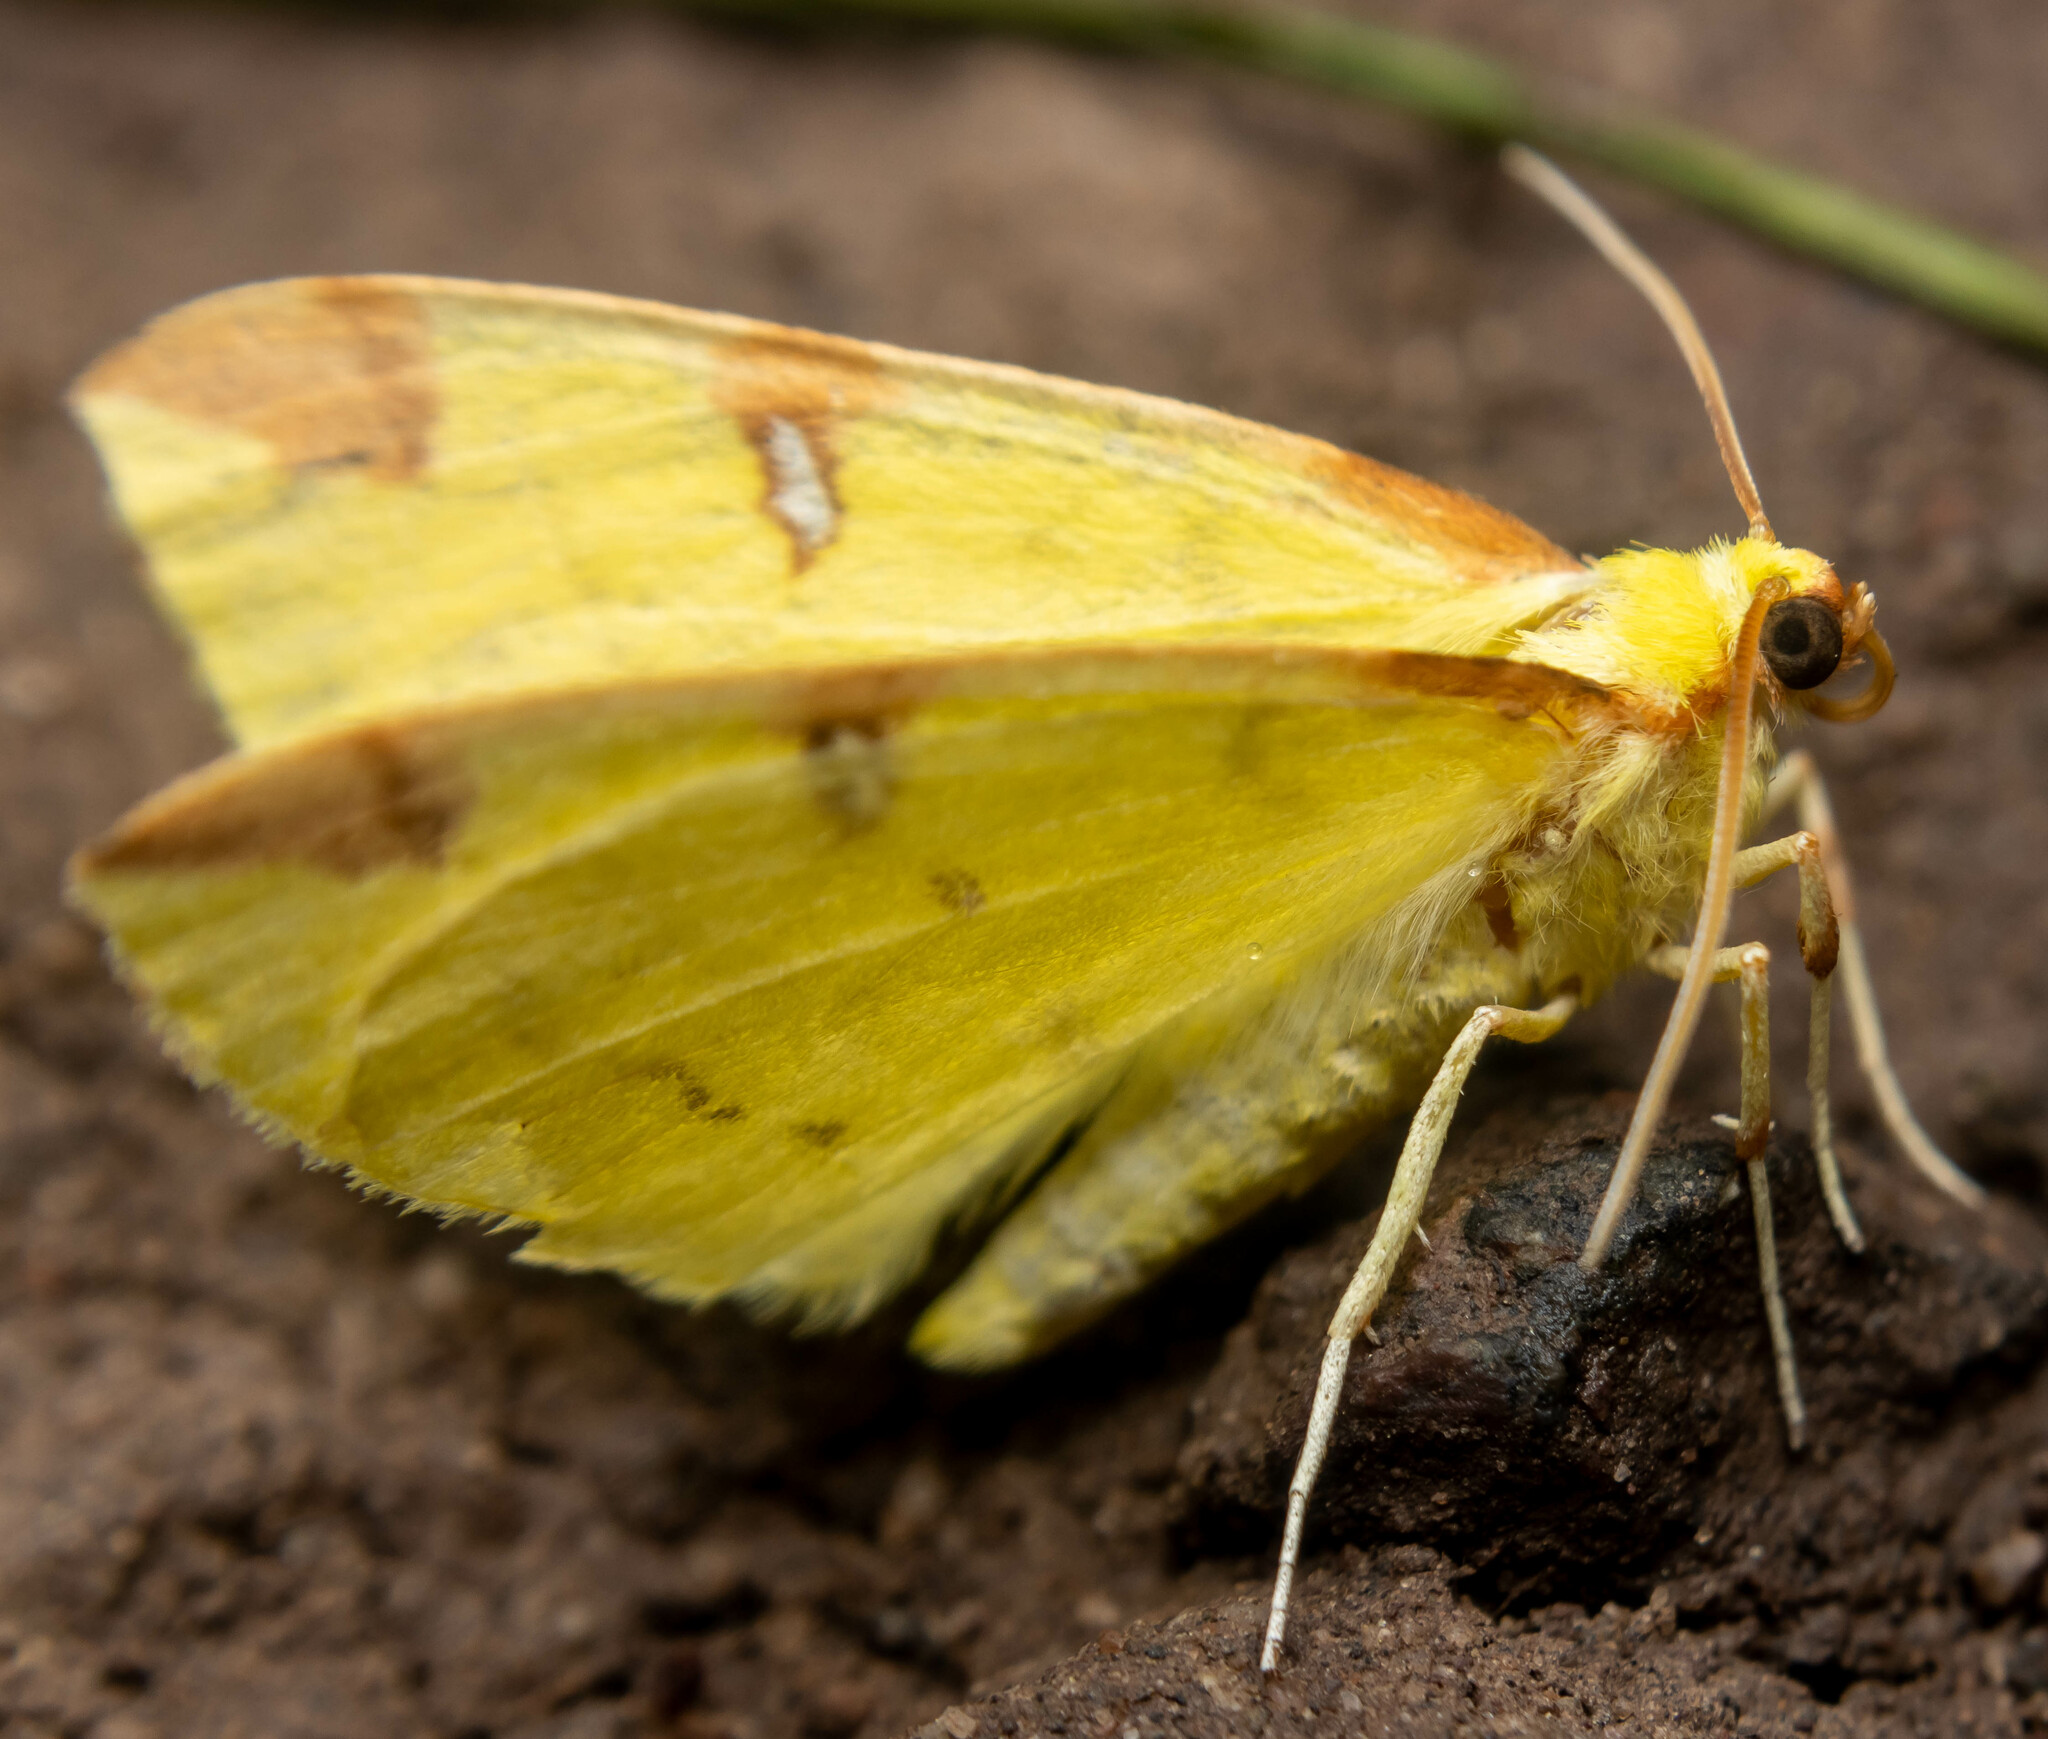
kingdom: Animalia
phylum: Arthropoda
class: Insecta
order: Lepidoptera
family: Geometridae
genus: Opisthograptis
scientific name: Opisthograptis luteolata
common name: Brimstone moth
